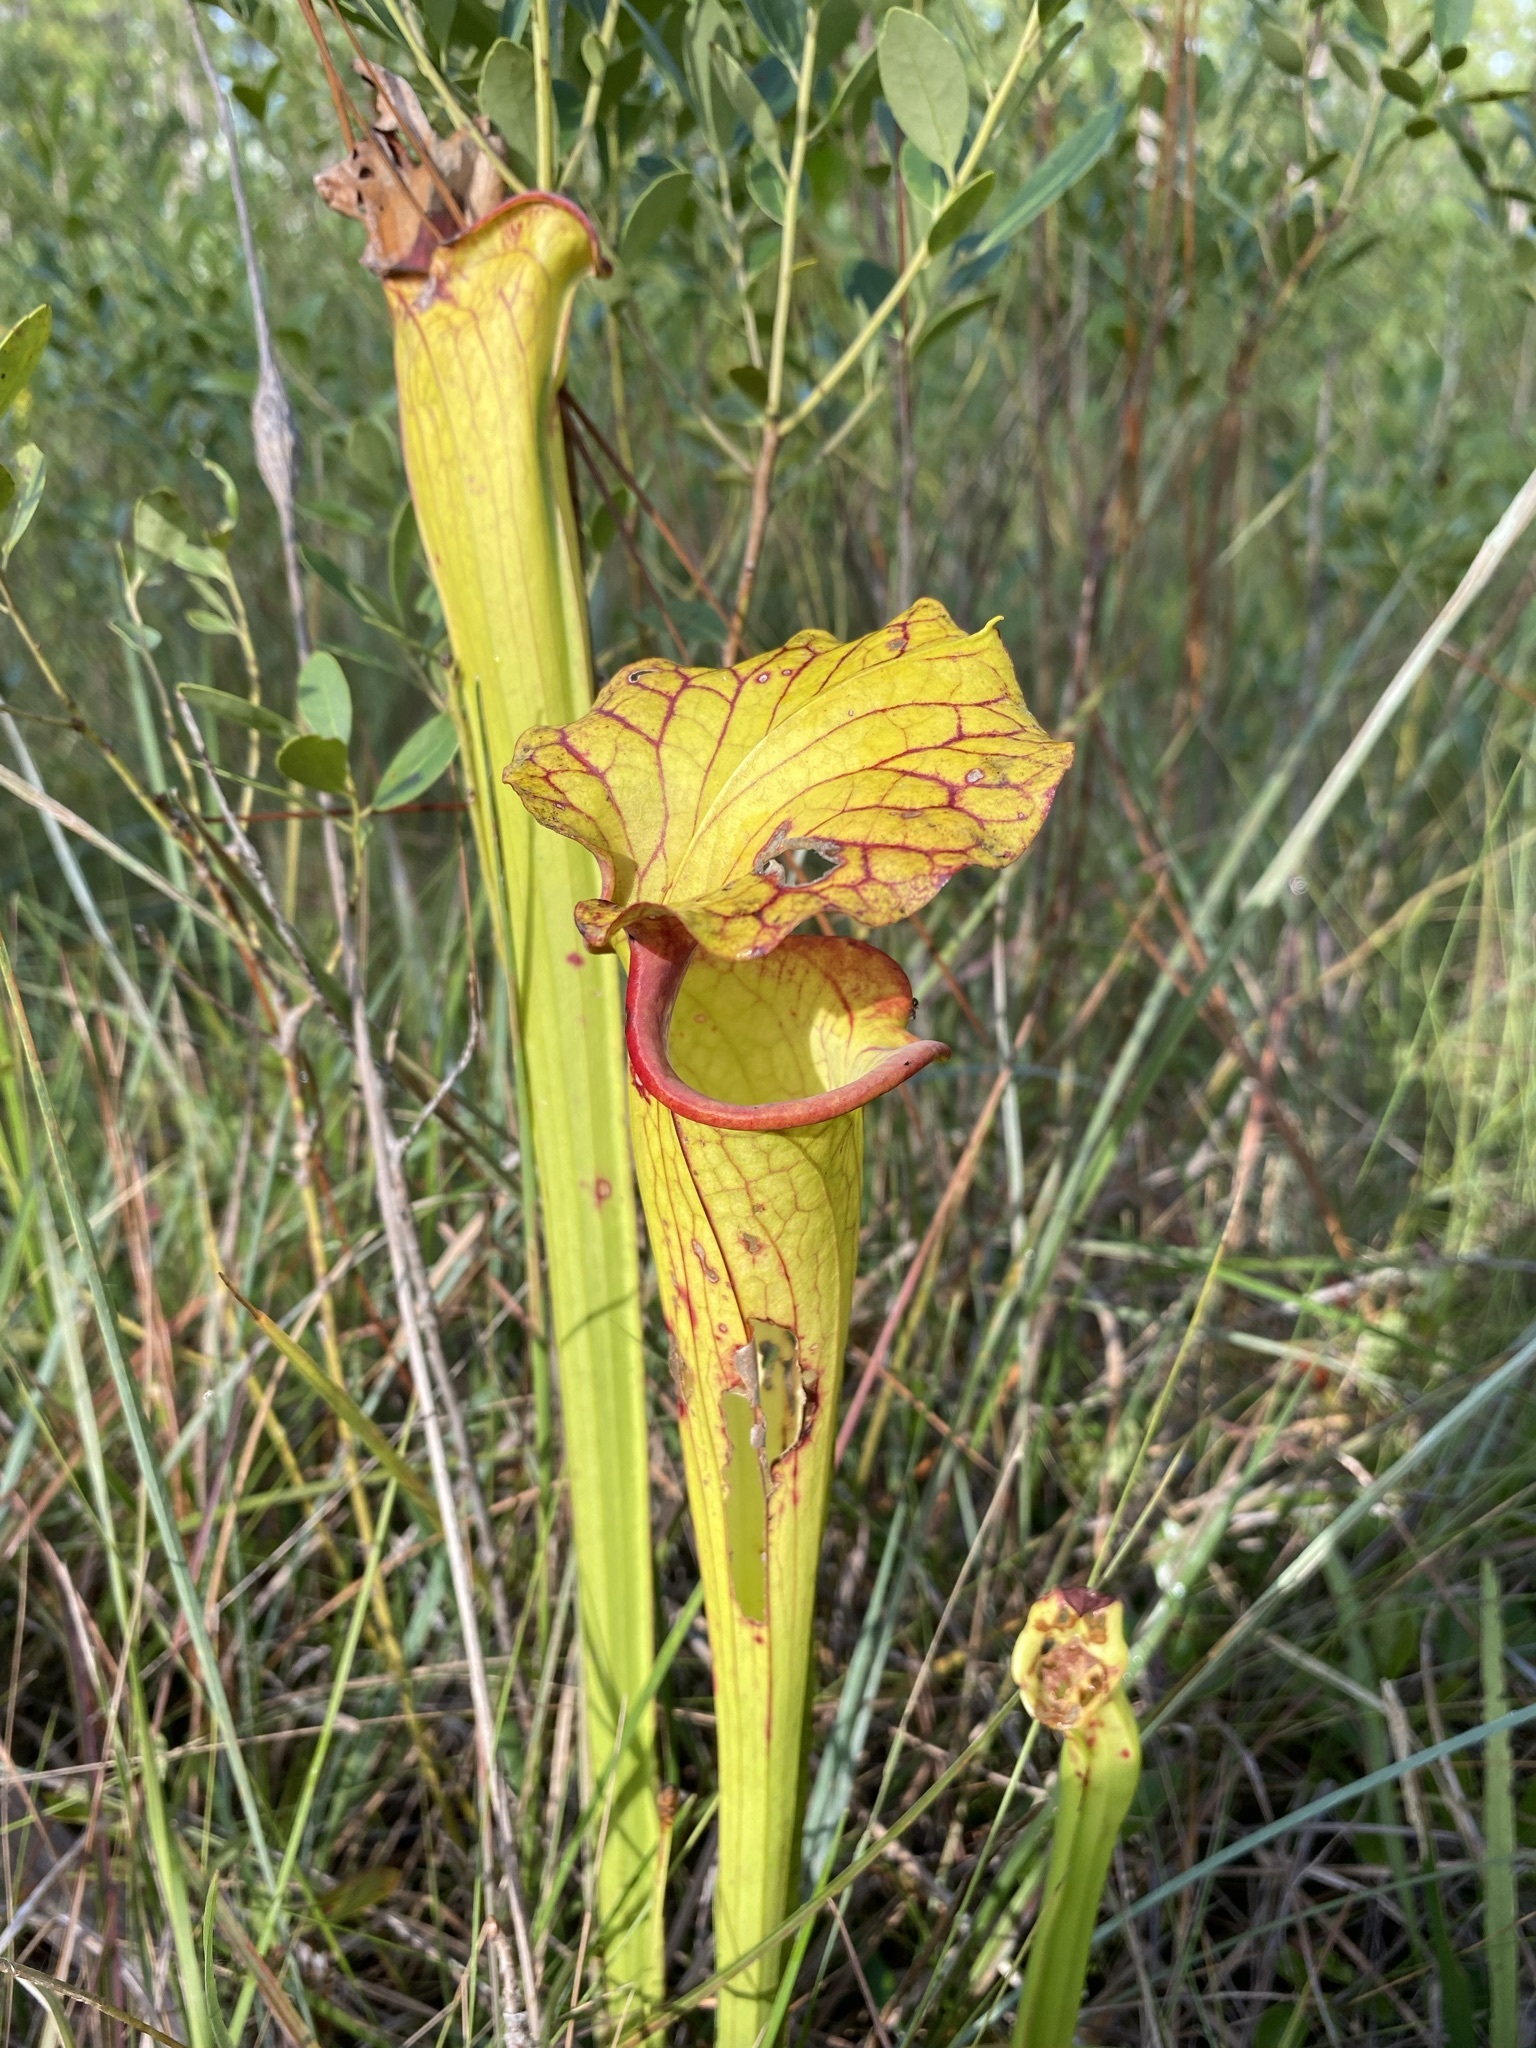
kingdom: Plantae
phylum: Tracheophyta
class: Magnoliopsida
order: Ericales
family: Sarraceniaceae
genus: Sarracenia
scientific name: Sarracenia moorei
